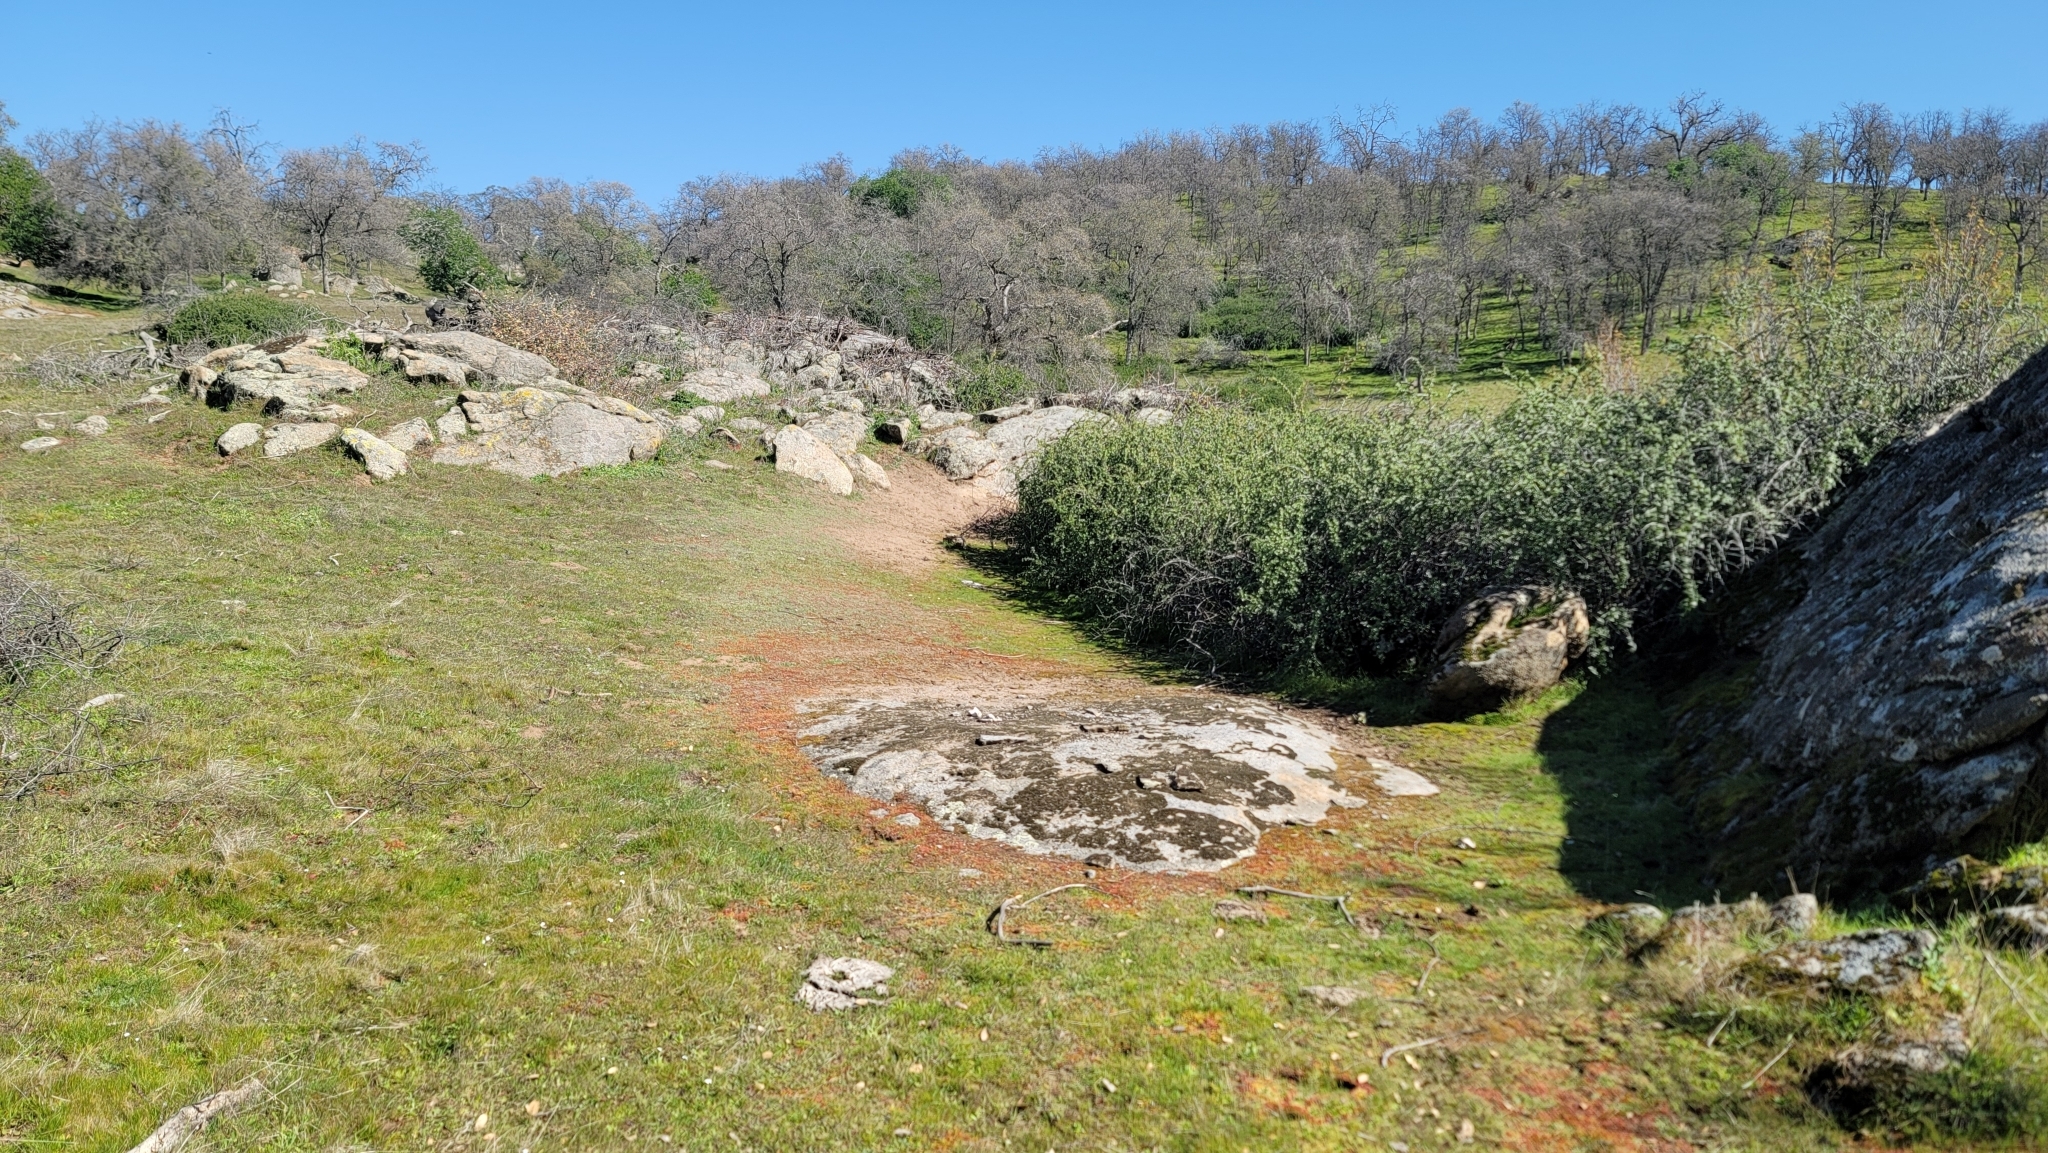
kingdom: Plantae
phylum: Tracheophyta
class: Magnoliopsida
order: Lamiales
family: Phrymaceae
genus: Diplacus
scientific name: Diplacus congdonii
